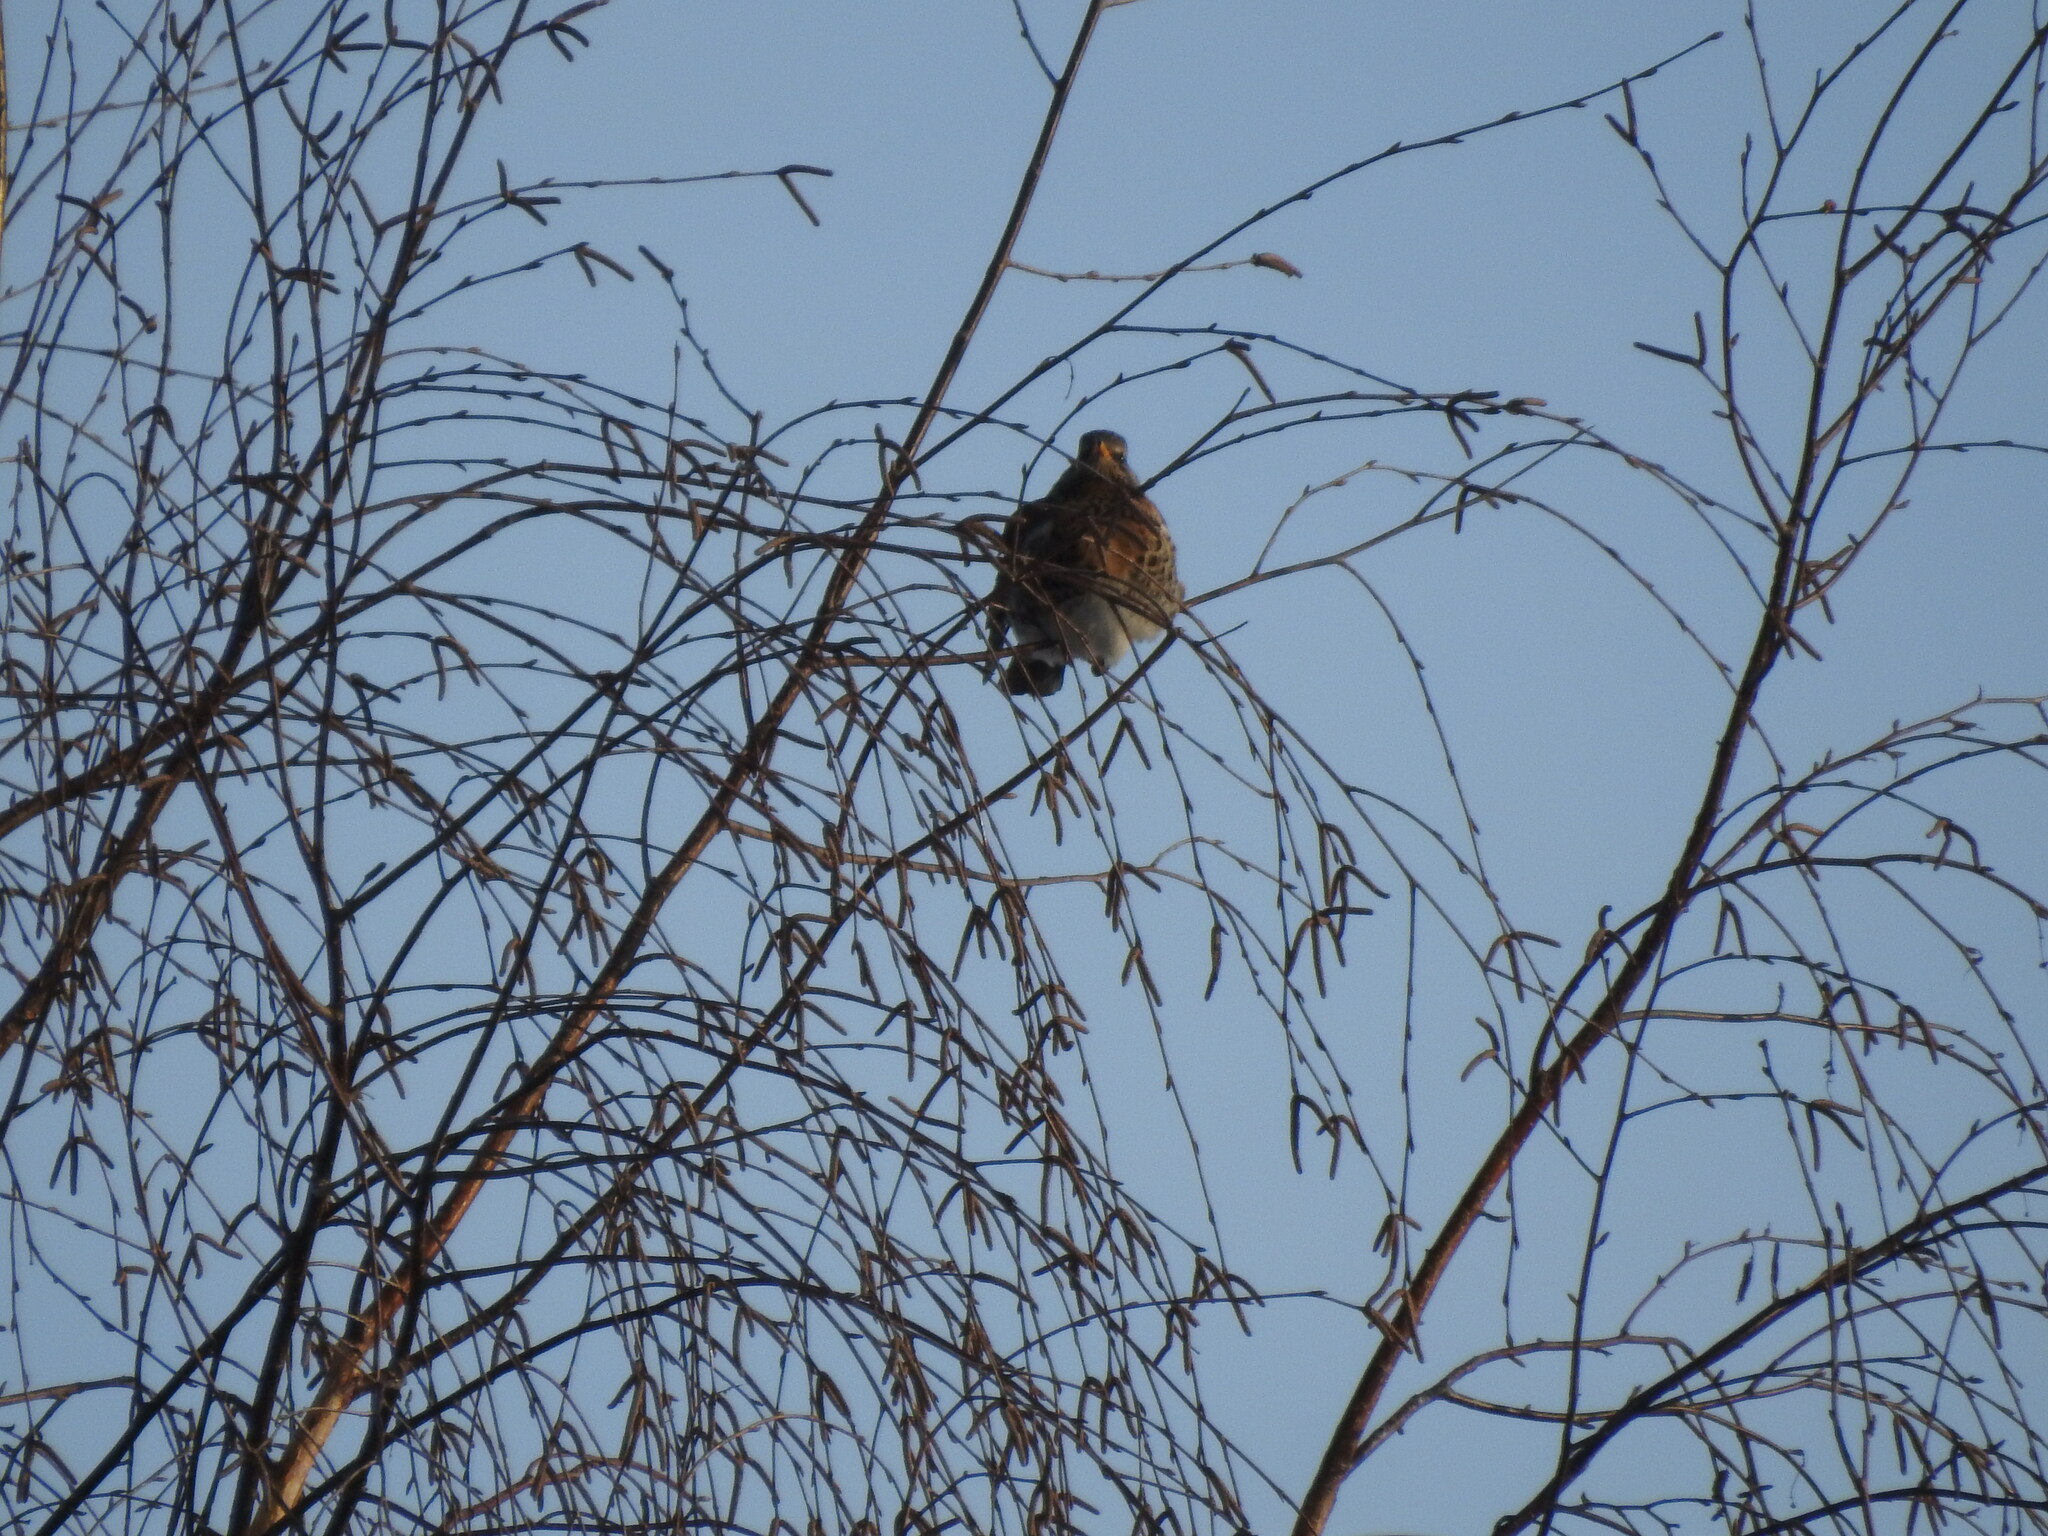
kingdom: Animalia
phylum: Chordata
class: Aves
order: Passeriformes
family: Turdidae
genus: Turdus
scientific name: Turdus pilaris
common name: Fieldfare
